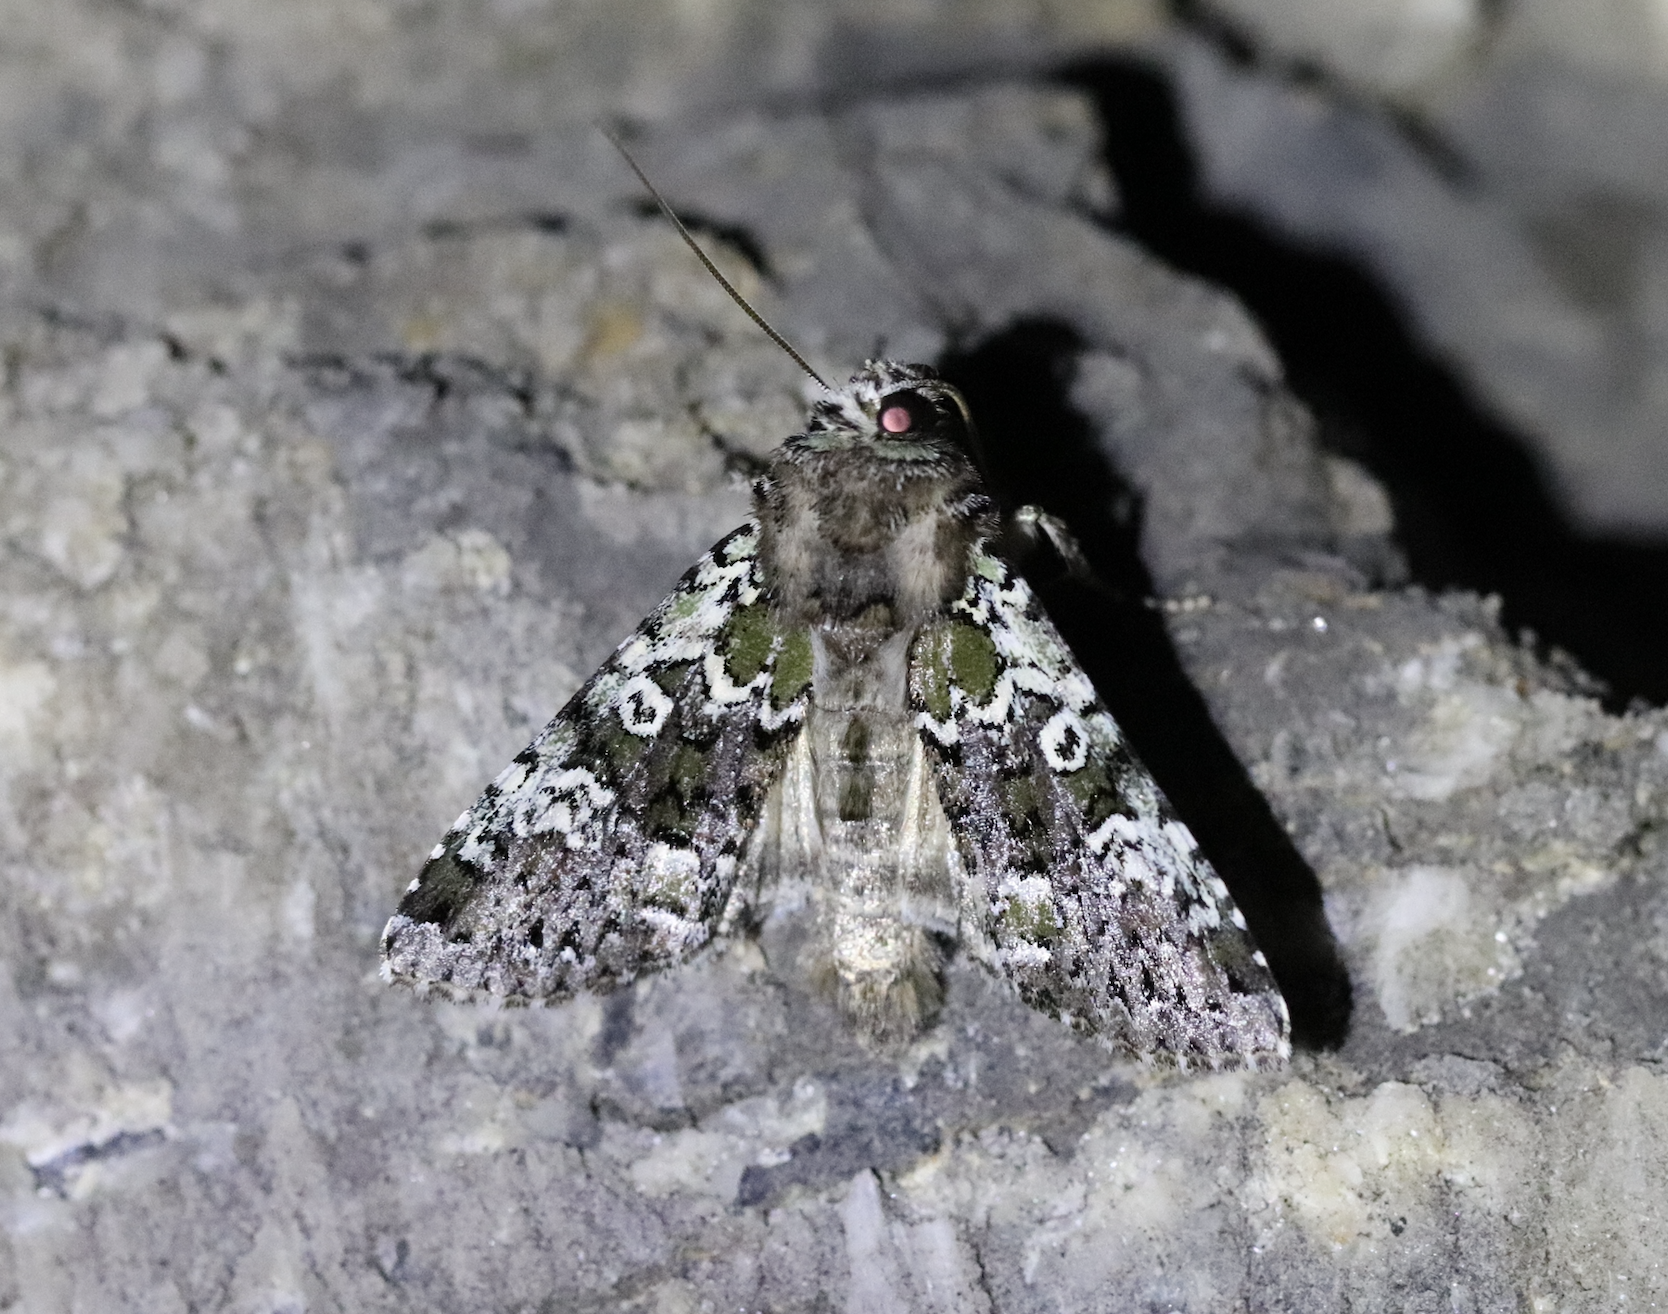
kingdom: Animalia
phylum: Arthropoda
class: Insecta
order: Lepidoptera
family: Noctuidae
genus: Crypsedra
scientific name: Crypsedra gemmea
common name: Cameo
